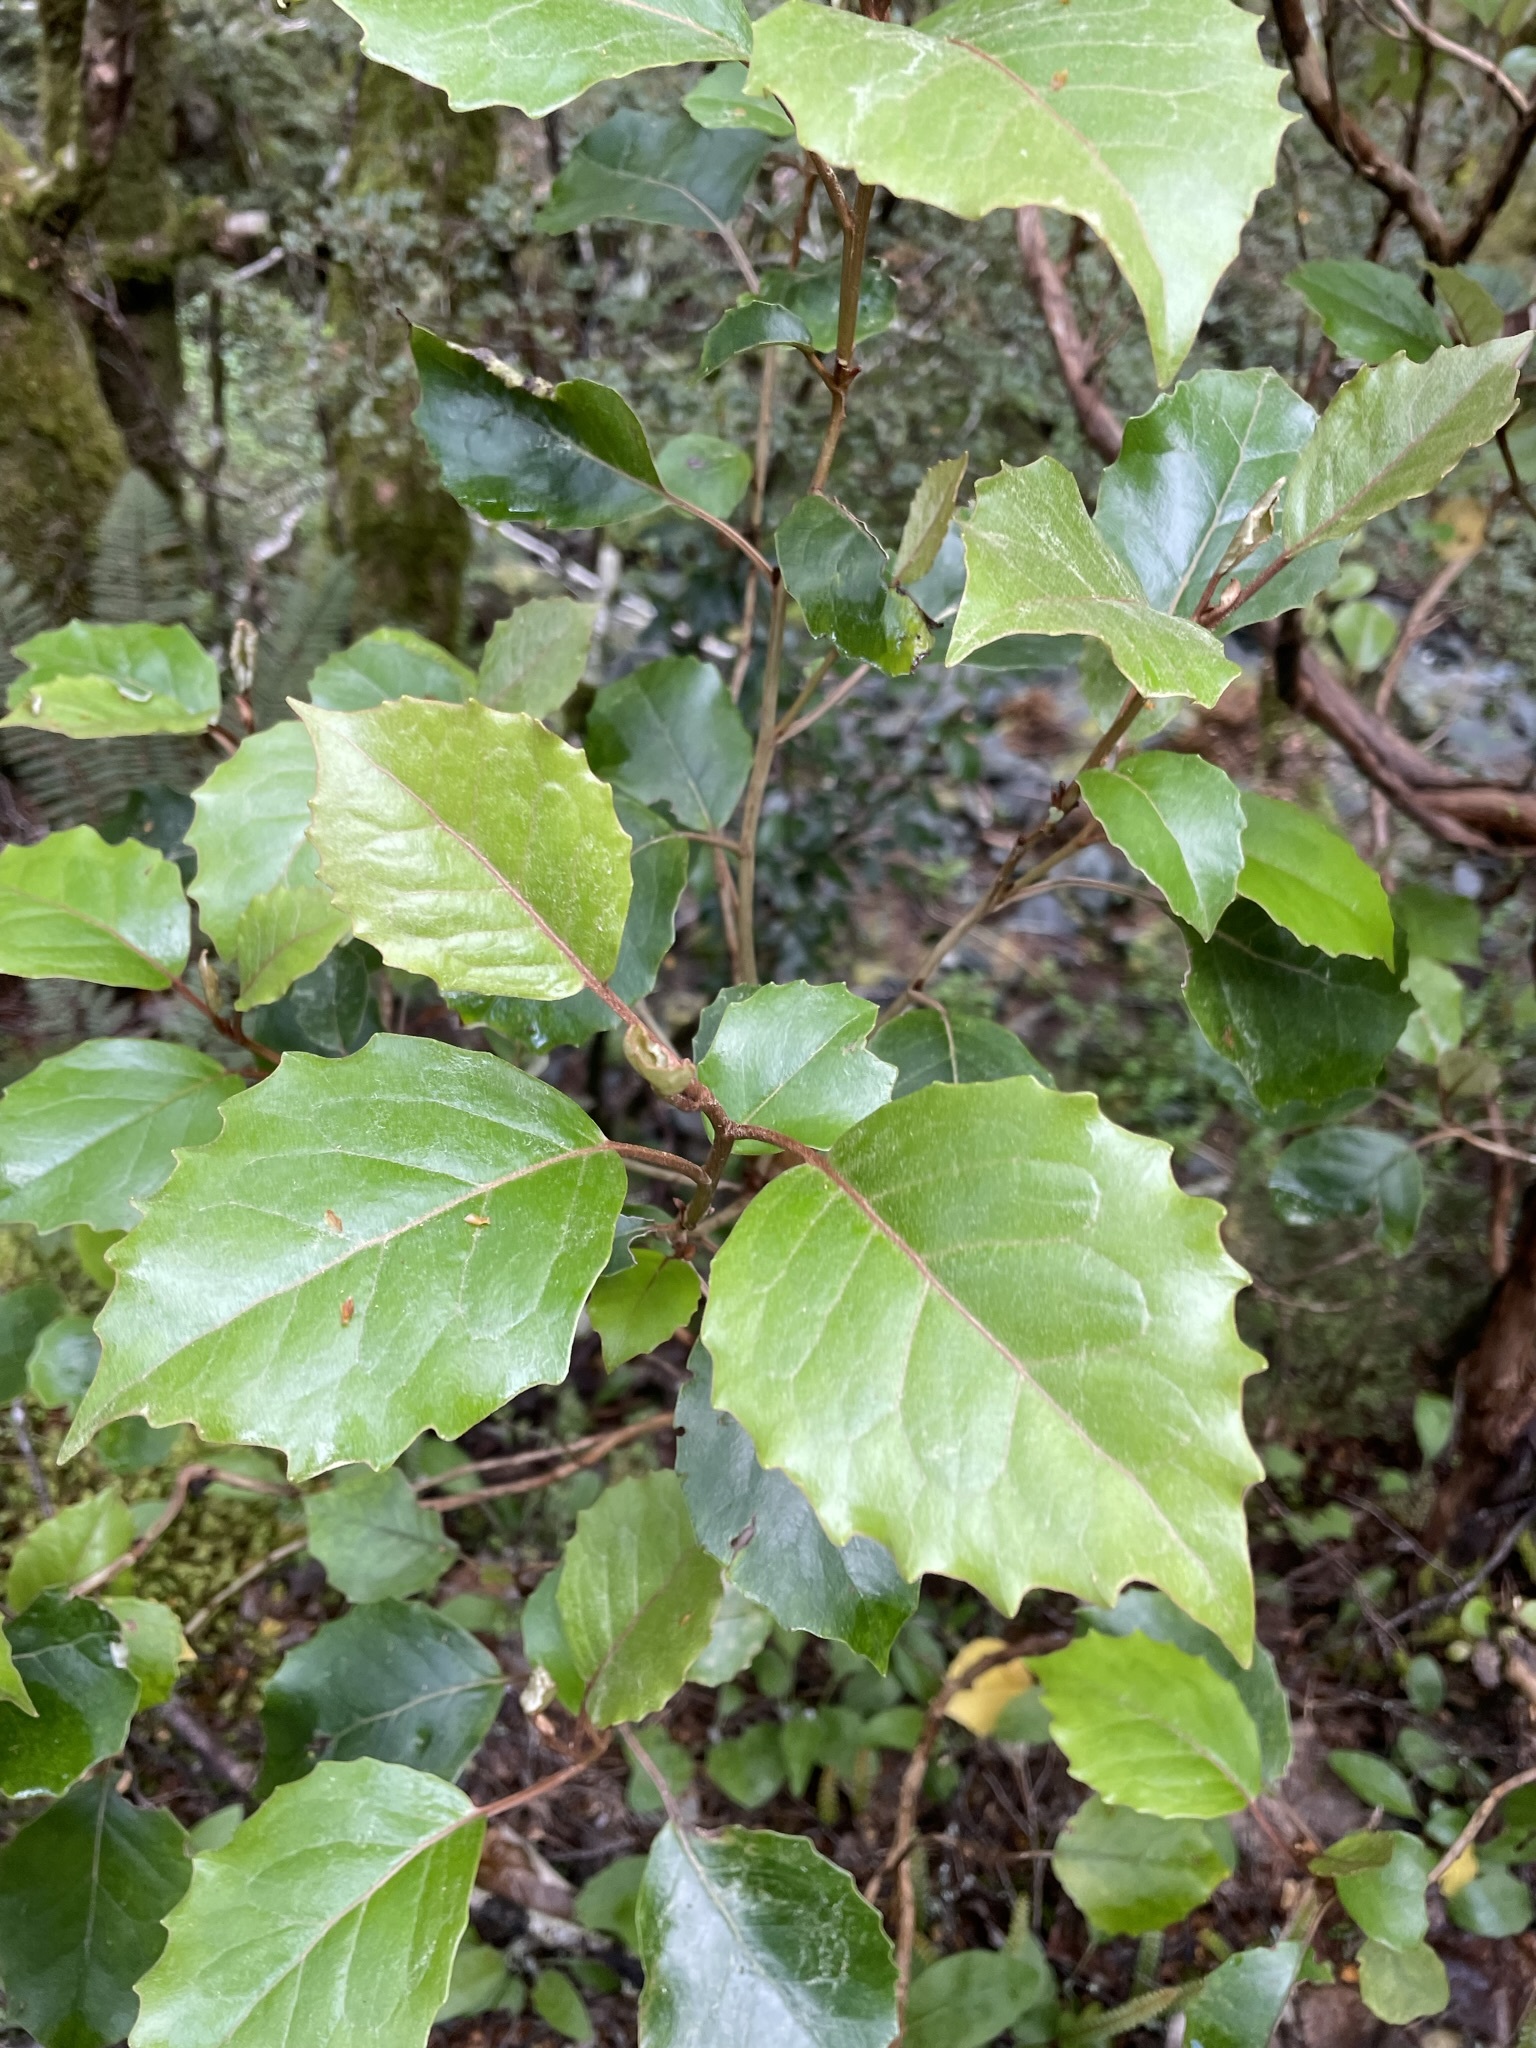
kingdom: Plantae
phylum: Tracheophyta
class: Magnoliopsida
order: Asterales
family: Asteraceae
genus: Olearia
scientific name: Olearia arborescens
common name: Glossy tree daisy
